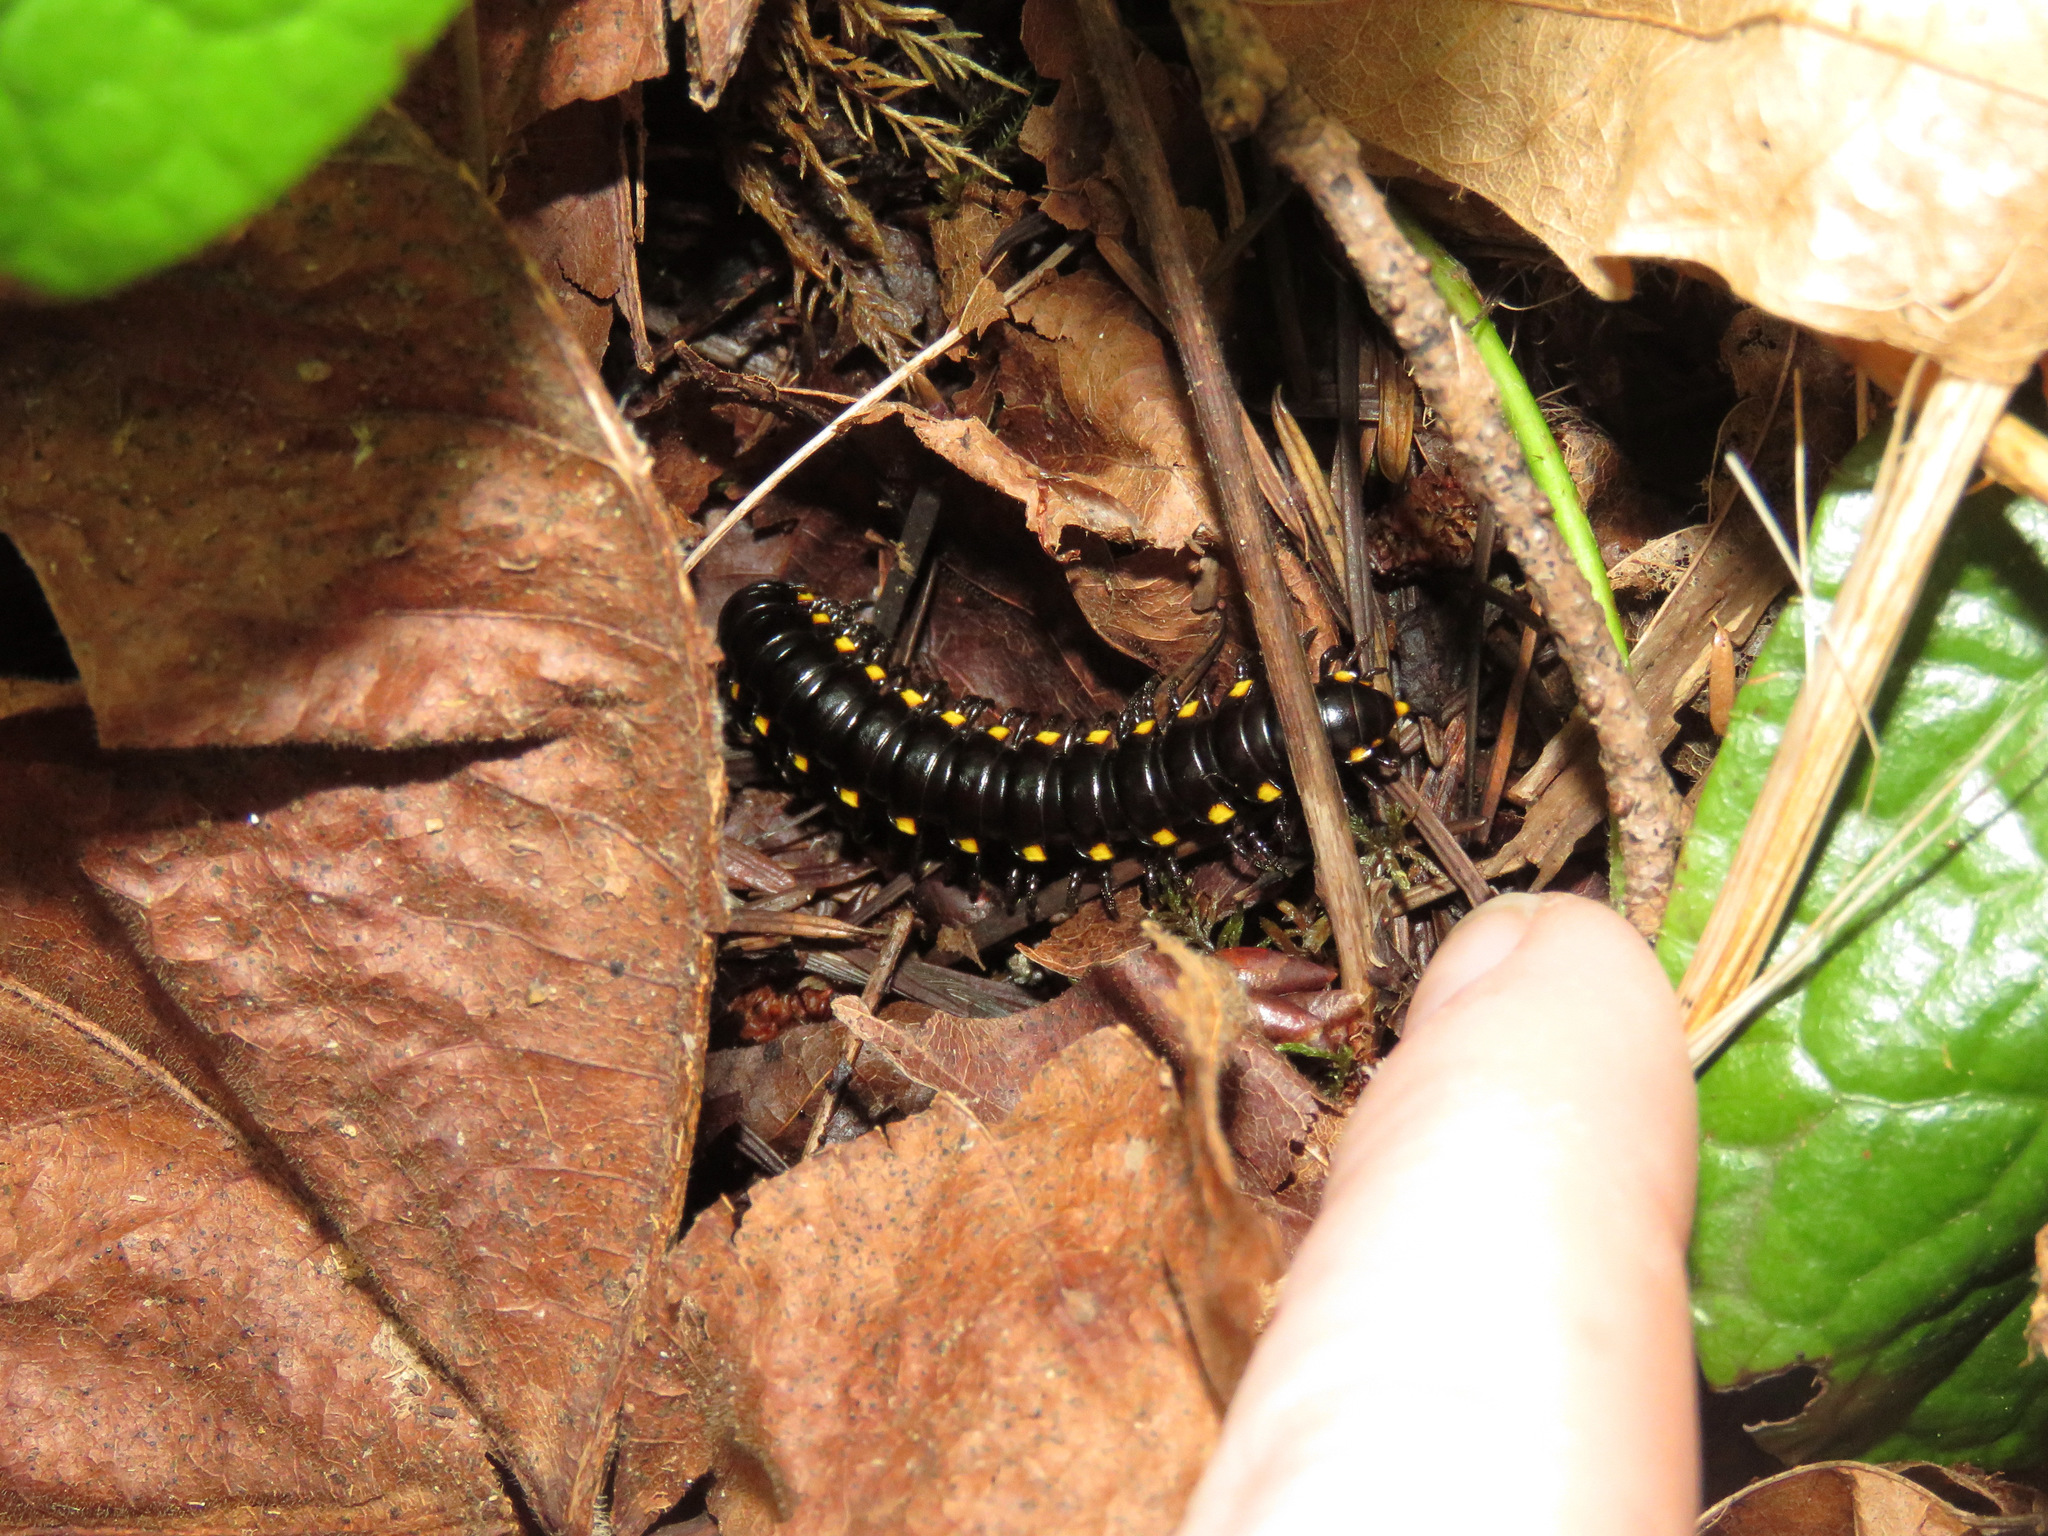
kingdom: Animalia
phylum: Arthropoda
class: Diplopoda
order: Polydesmida
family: Xystodesmidae
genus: Harpaphe
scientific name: Harpaphe haydeniana
